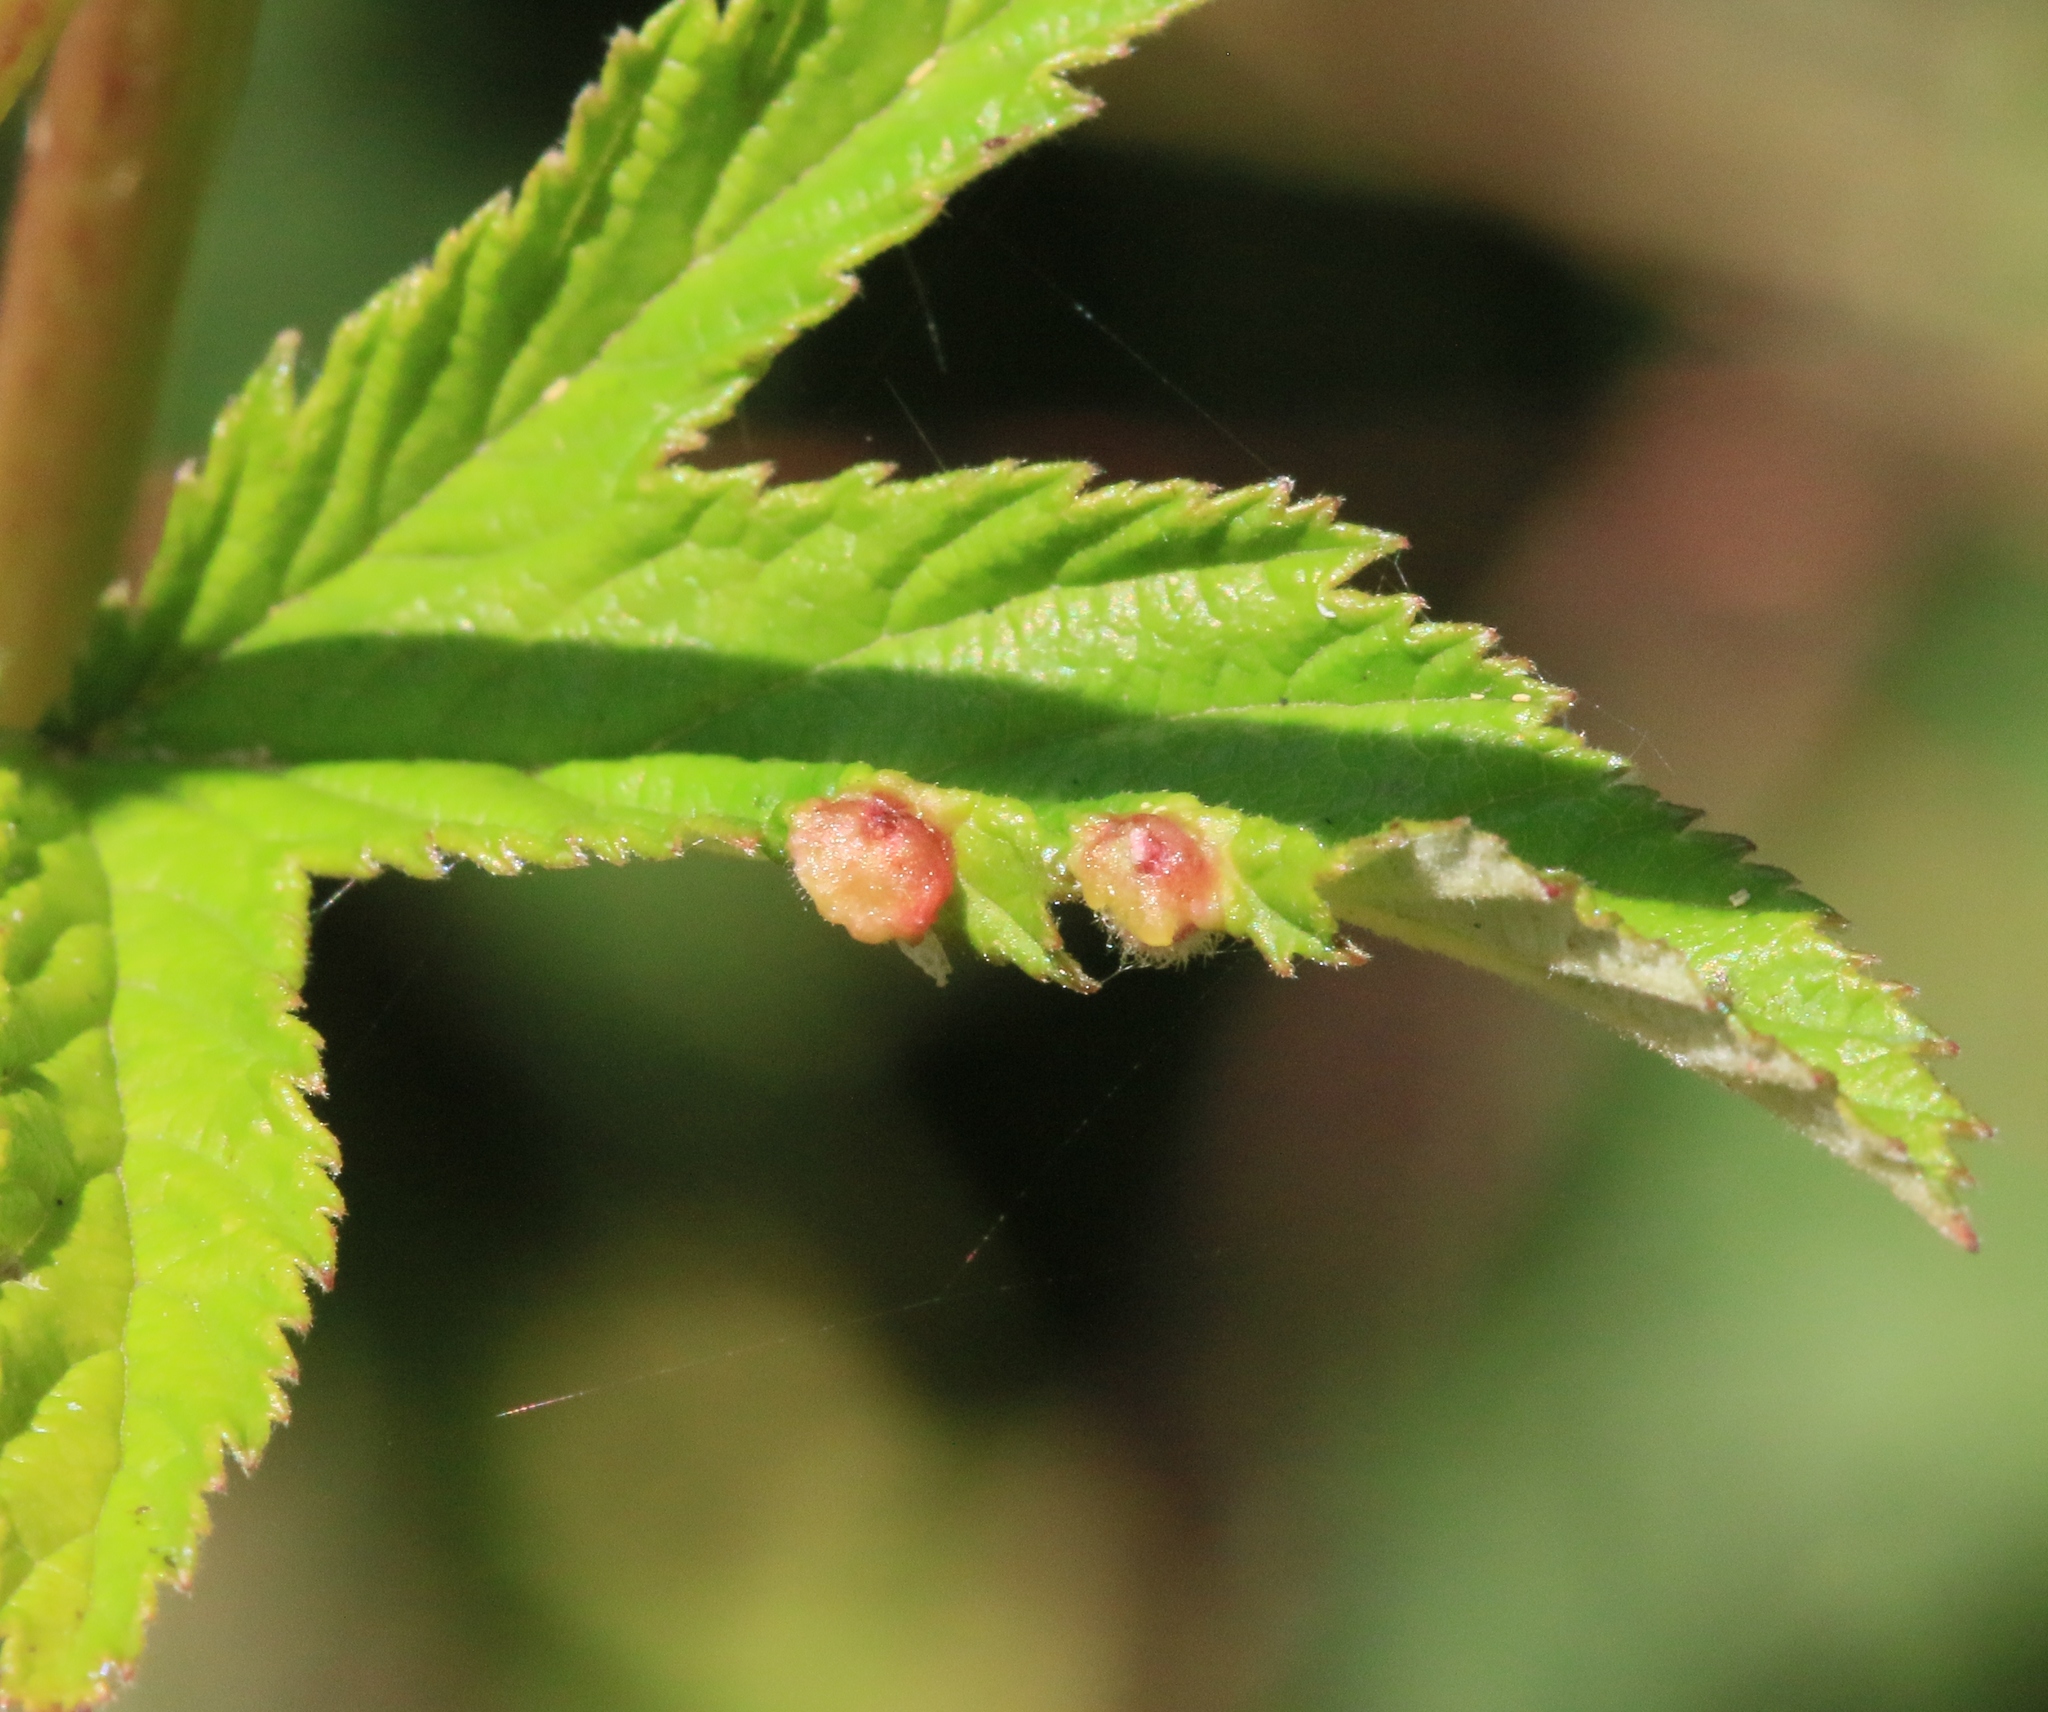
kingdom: Animalia
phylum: Arthropoda
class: Insecta
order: Diptera
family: Cecidomyiidae
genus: Dasineura
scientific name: Dasineura ulmaria
